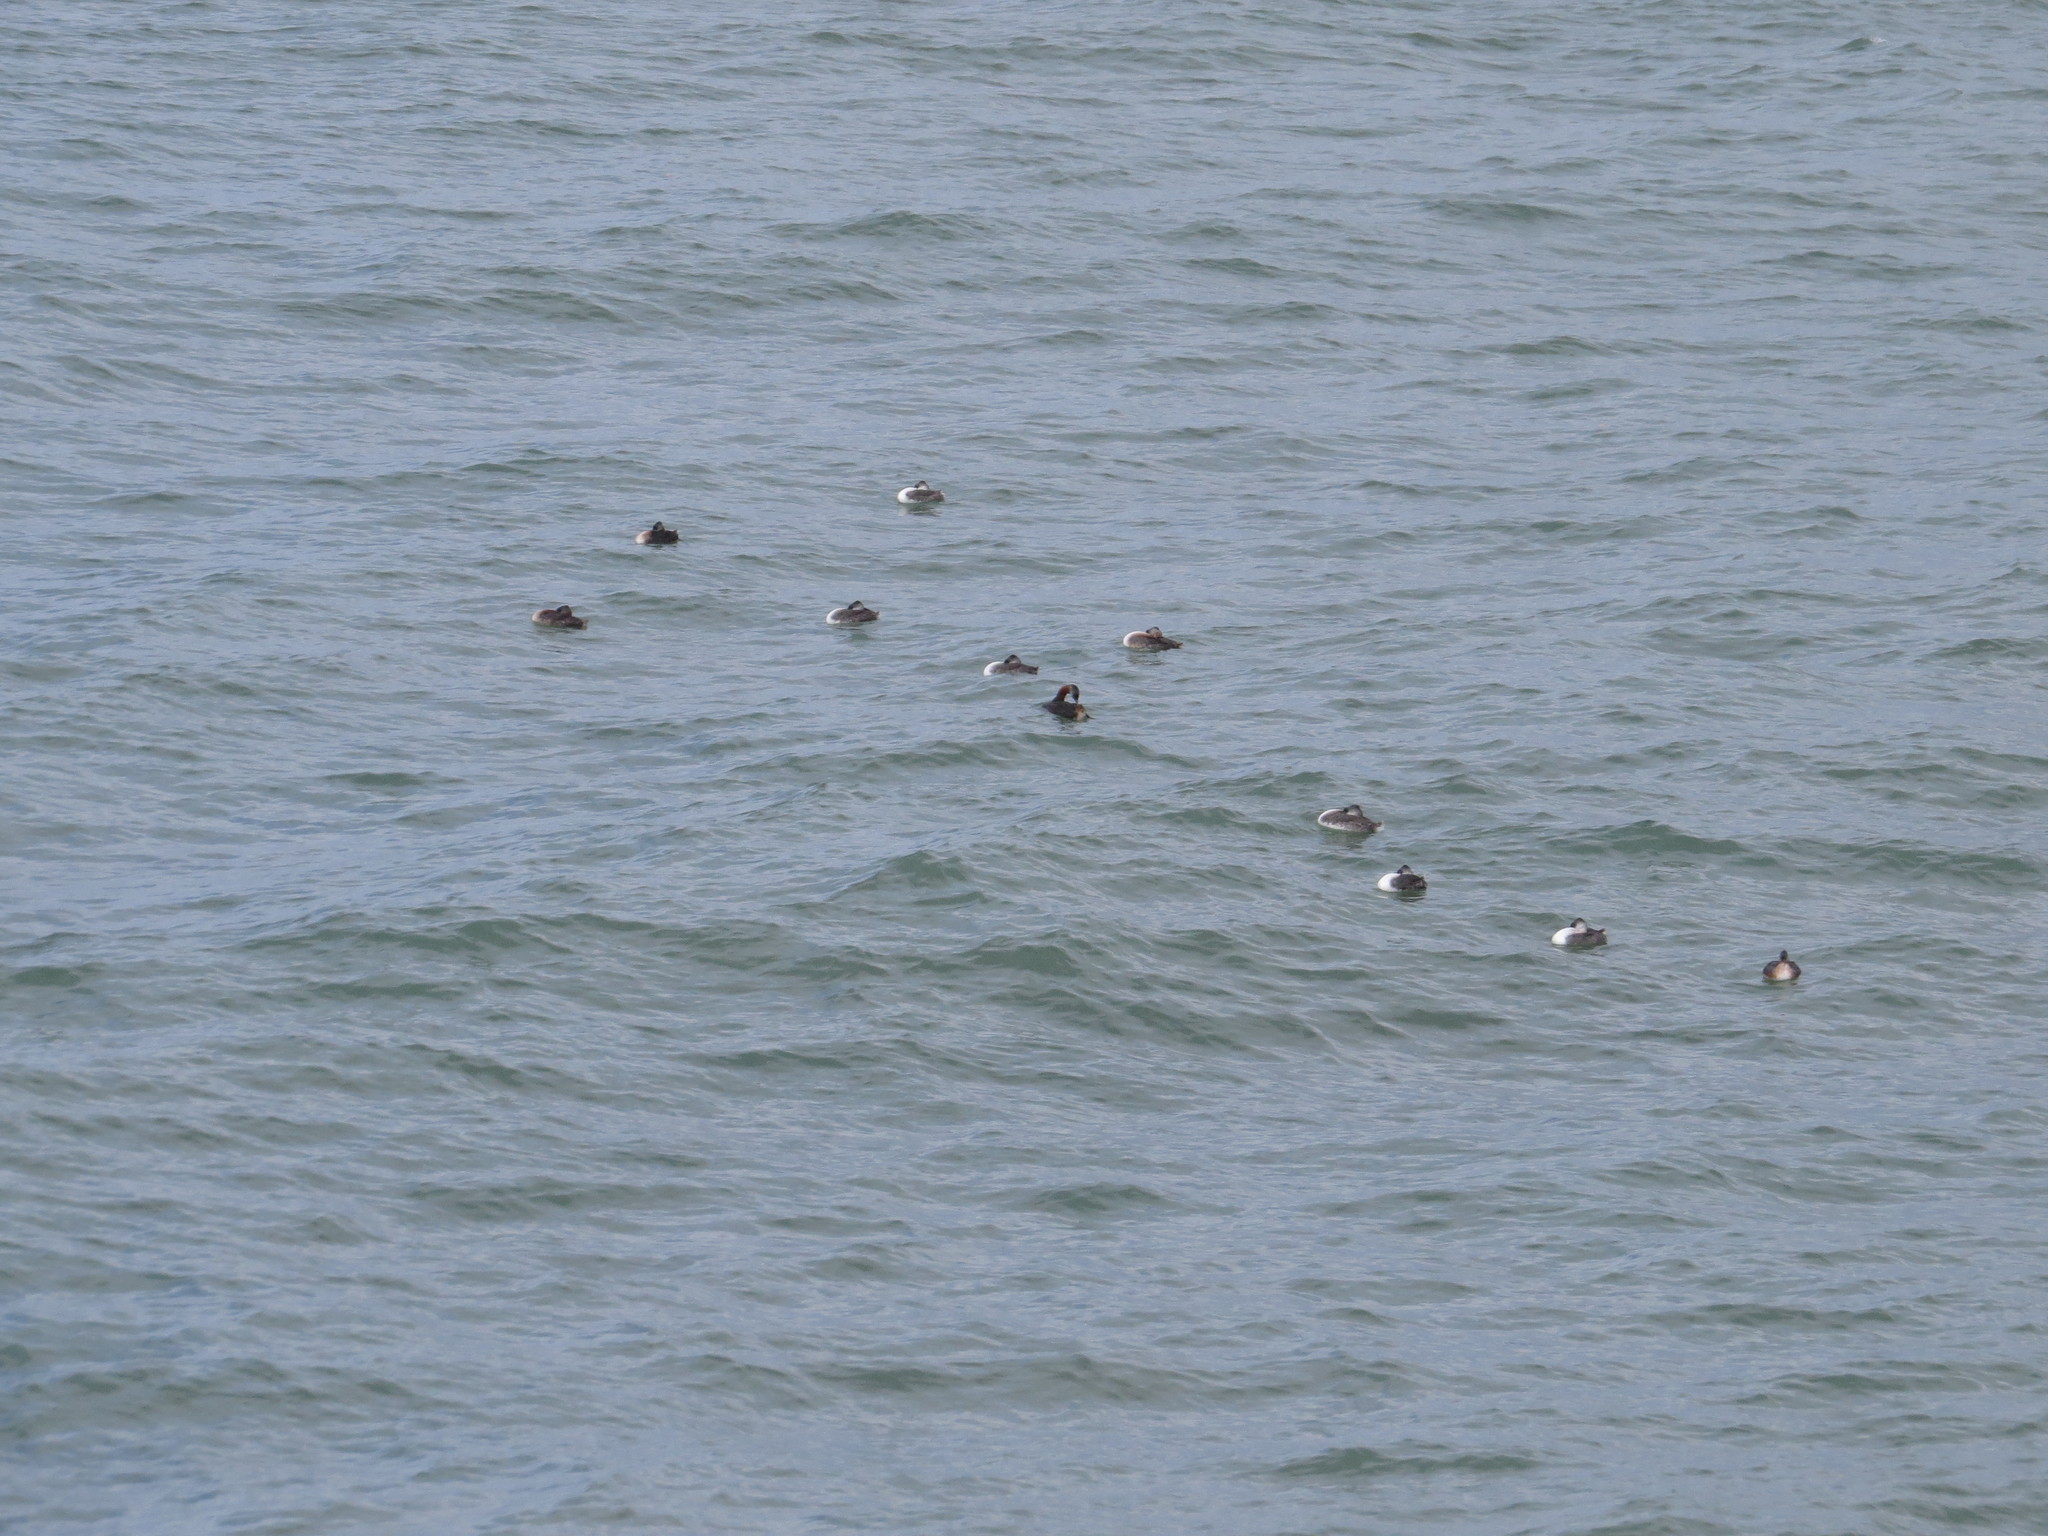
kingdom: Animalia
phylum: Chordata
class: Aves
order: Podicipediformes
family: Podicipedidae
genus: Podiceps
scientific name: Podiceps major
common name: Great grebe
